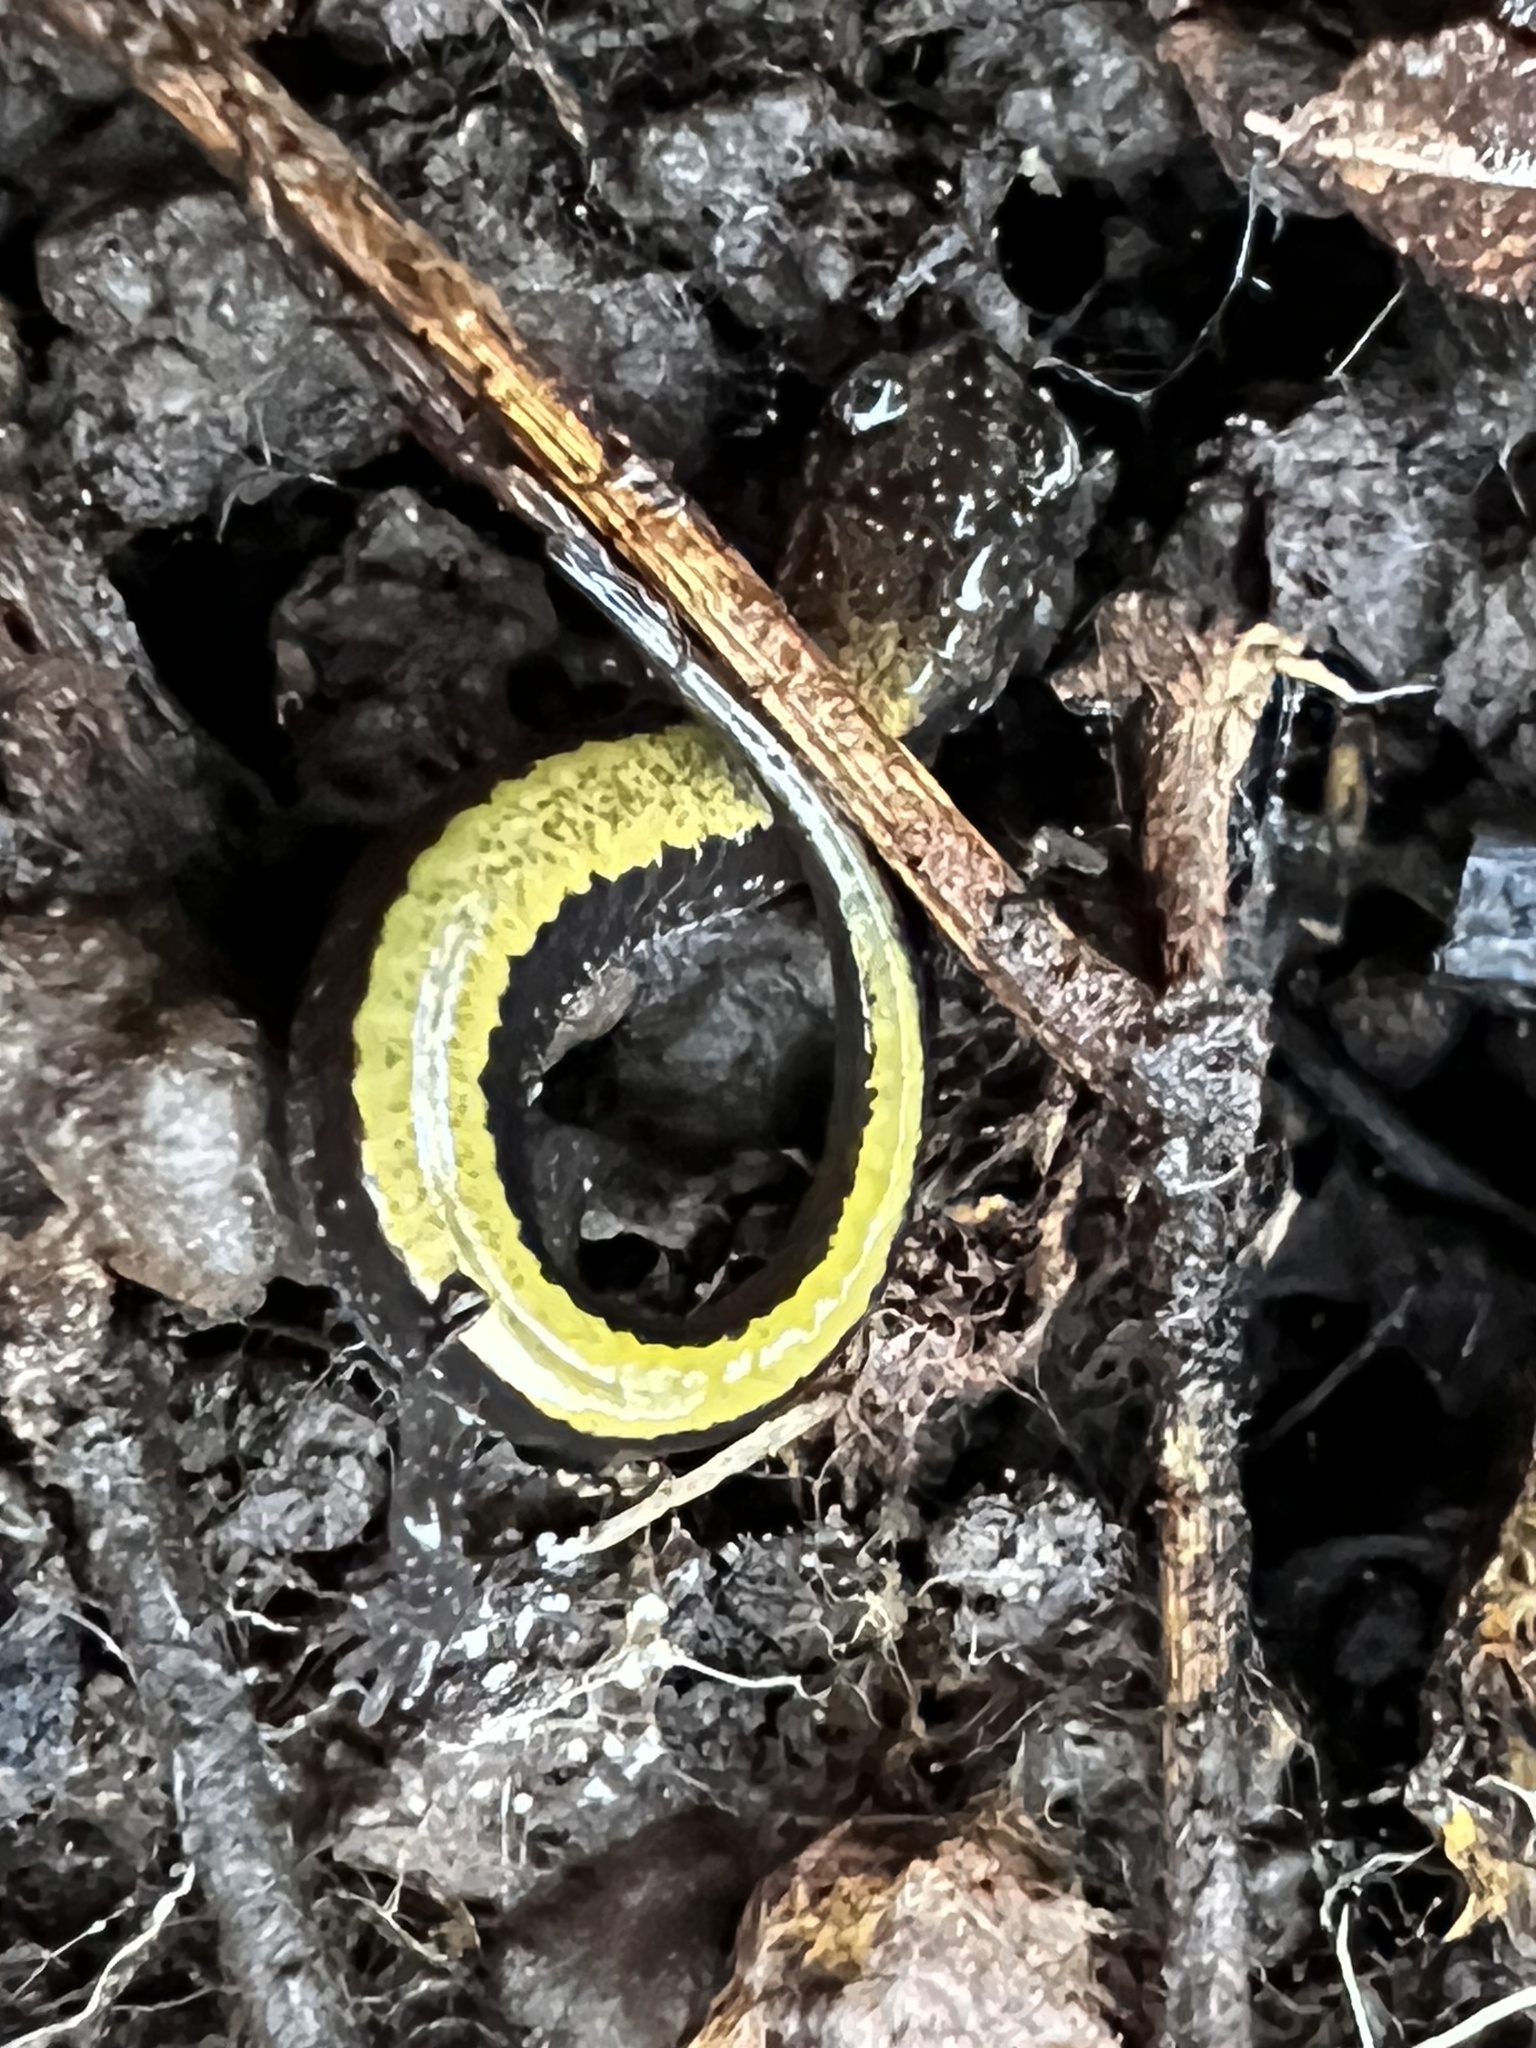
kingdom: Animalia
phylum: Chordata
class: Amphibia
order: Caudata
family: Plethodontidae
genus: Plethodon
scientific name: Plethodon cinereus
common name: Redback salamander
